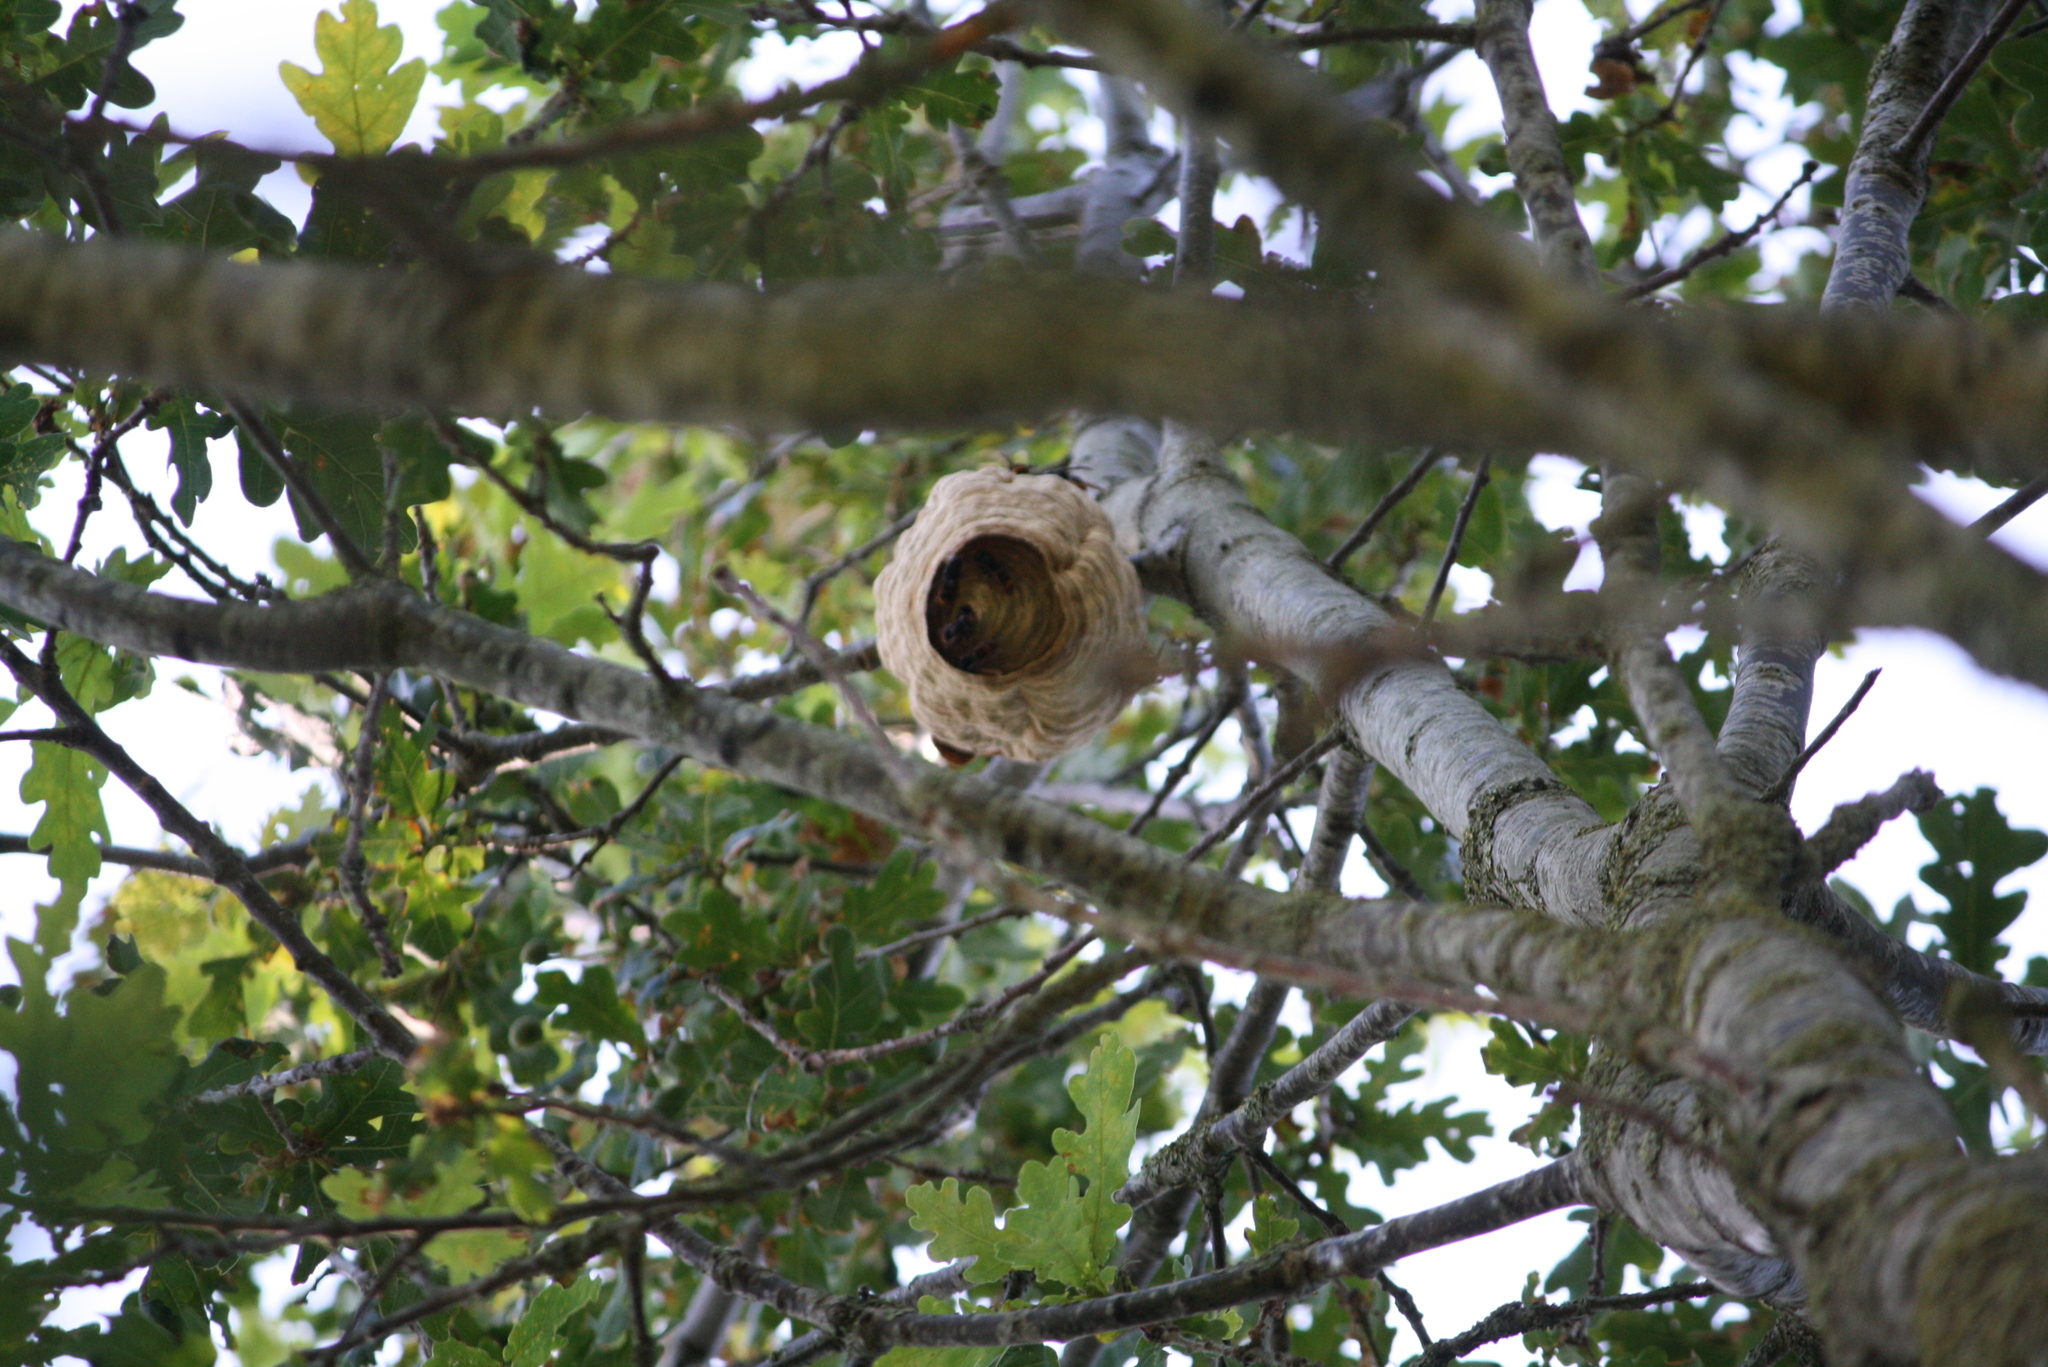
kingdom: Animalia
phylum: Arthropoda
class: Insecta
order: Hymenoptera
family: Vespidae
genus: Vespa
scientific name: Vespa velutina
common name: Asian hornet
